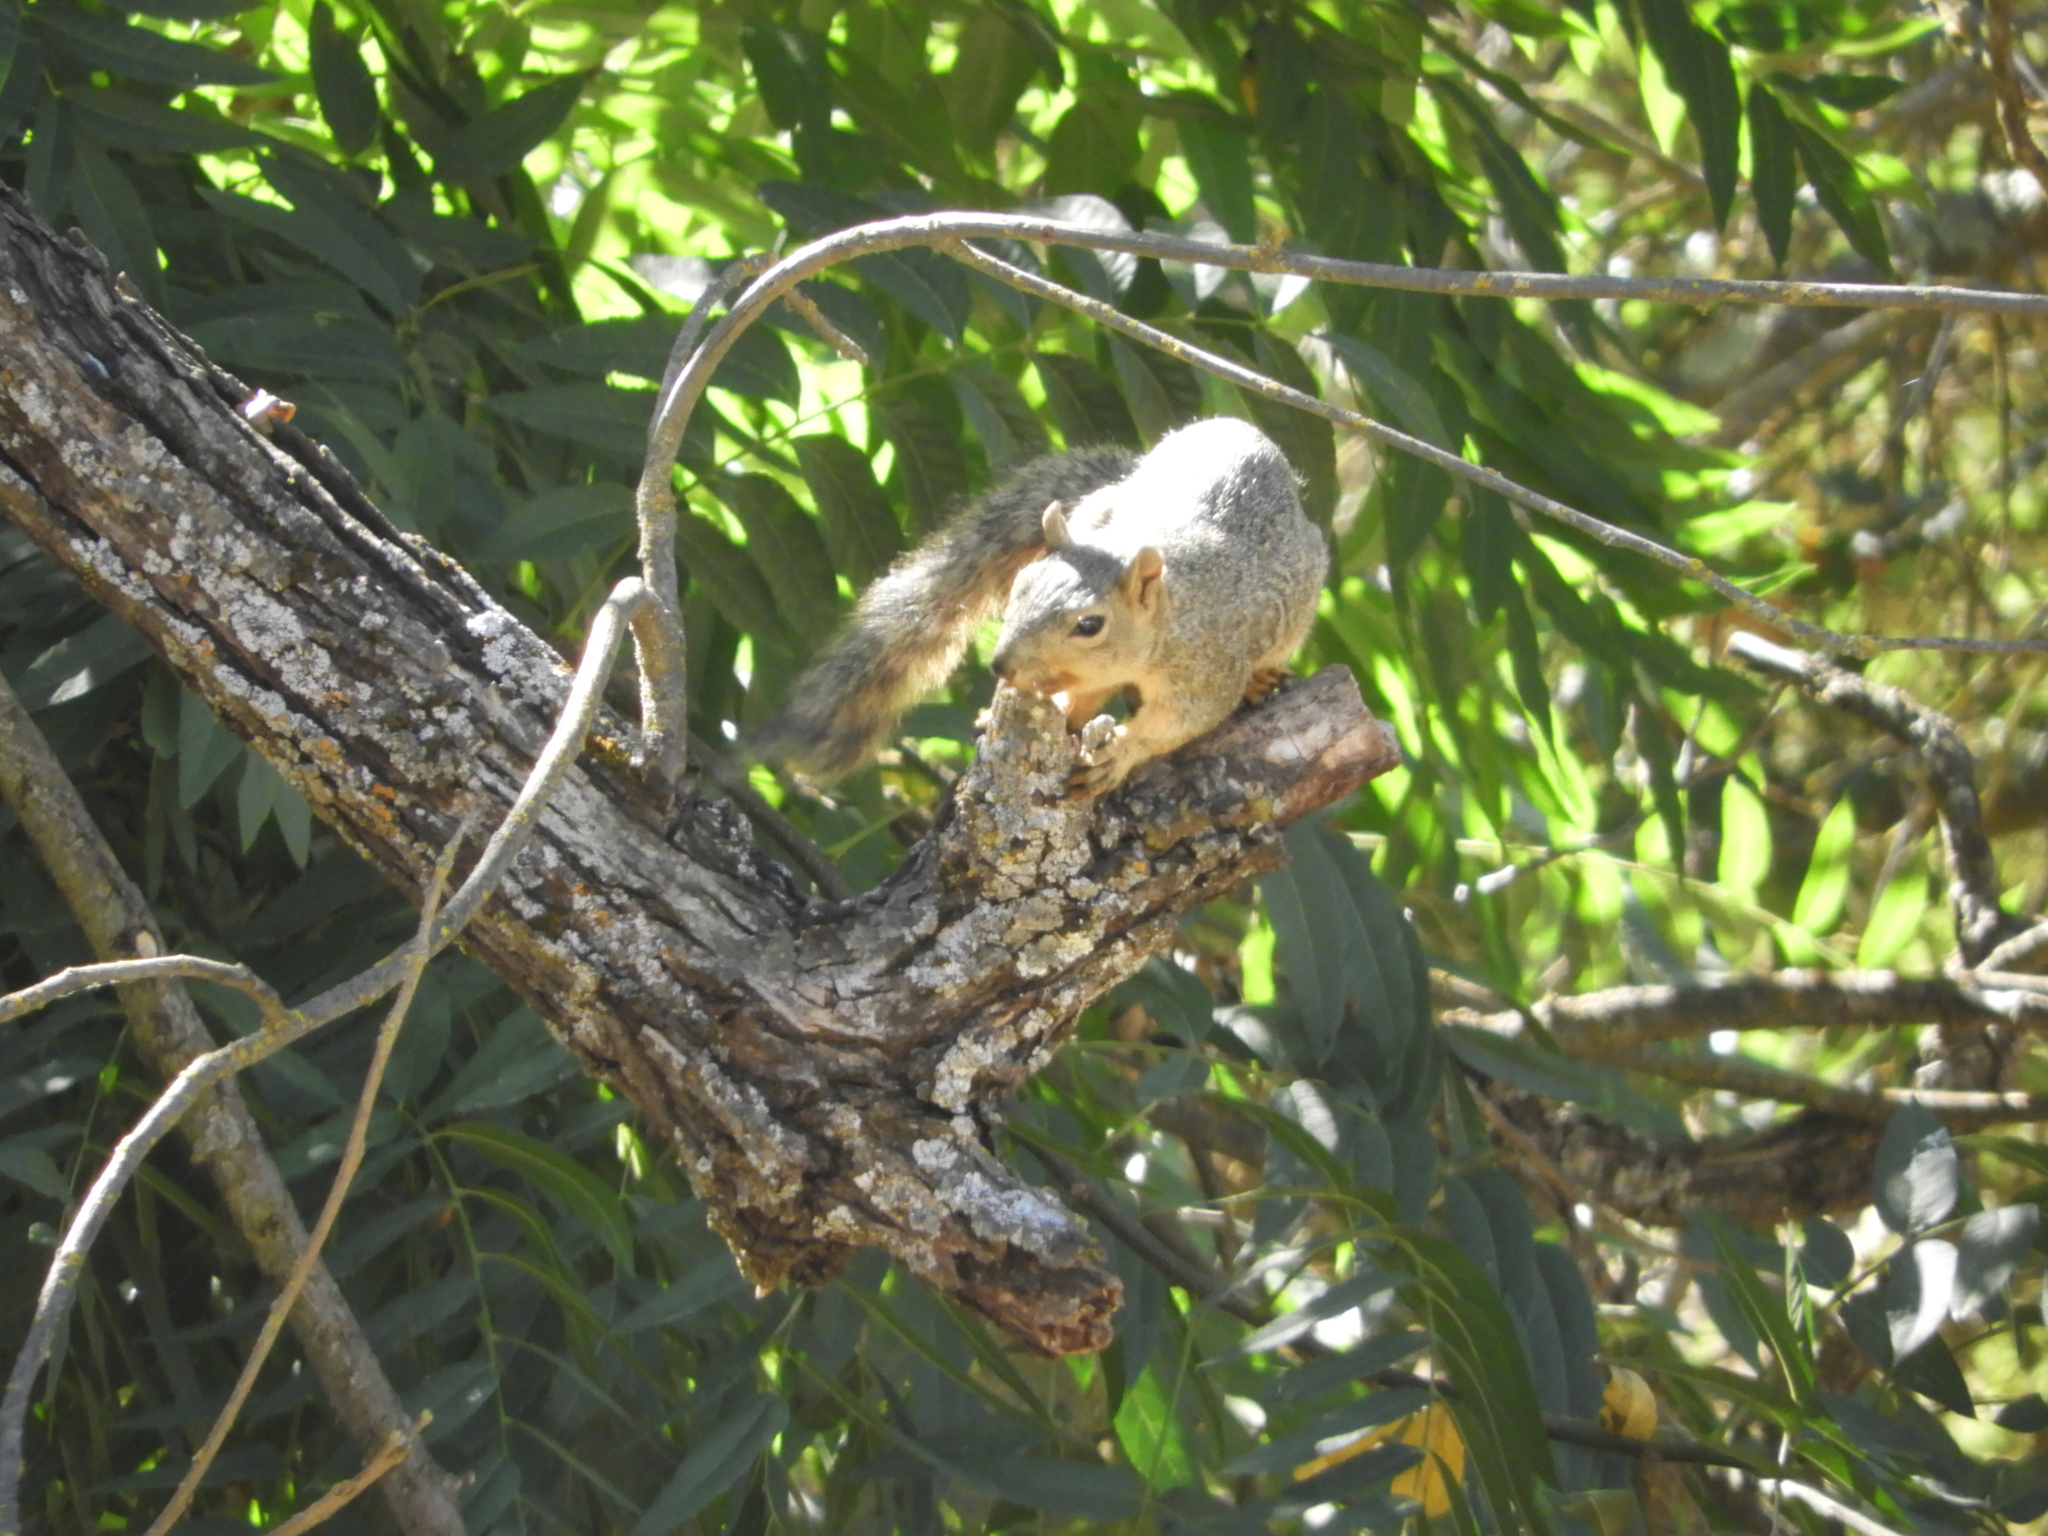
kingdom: Animalia
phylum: Chordata
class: Mammalia
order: Rodentia
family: Sciuridae
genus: Sciurus
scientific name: Sciurus niger
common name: Fox squirrel
